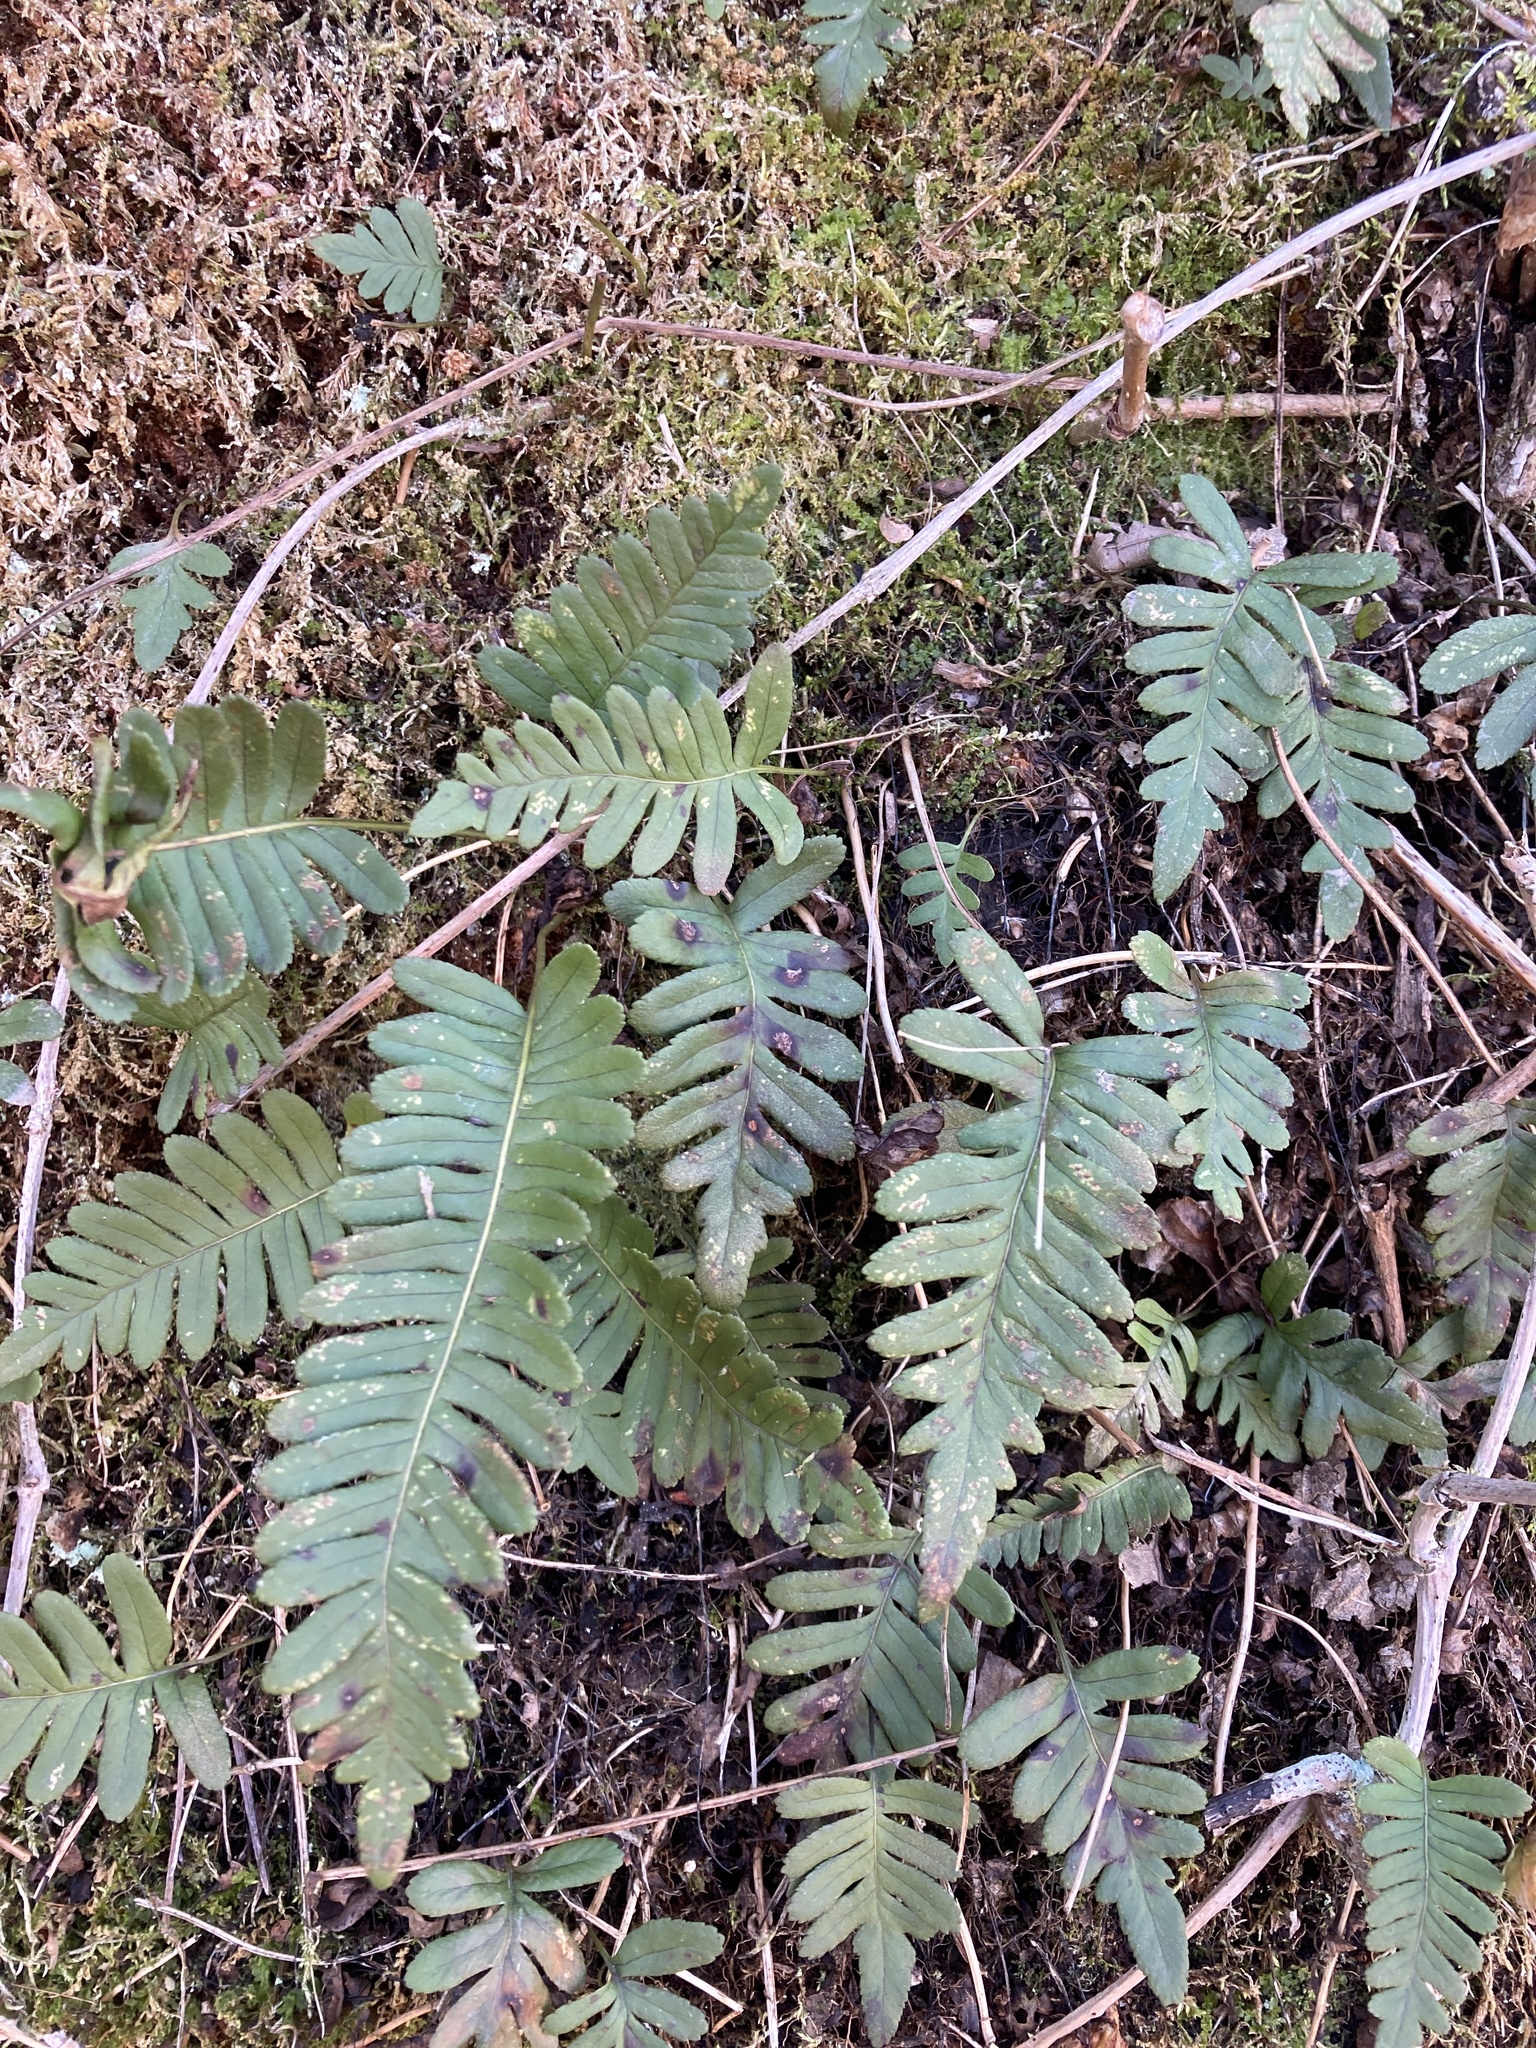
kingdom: Plantae
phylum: Tracheophyta
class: Polypodiopsida
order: Polypodiales
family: Polypodiaceae
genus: Polypodium
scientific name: Polypodium virginianum
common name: American wall fern
